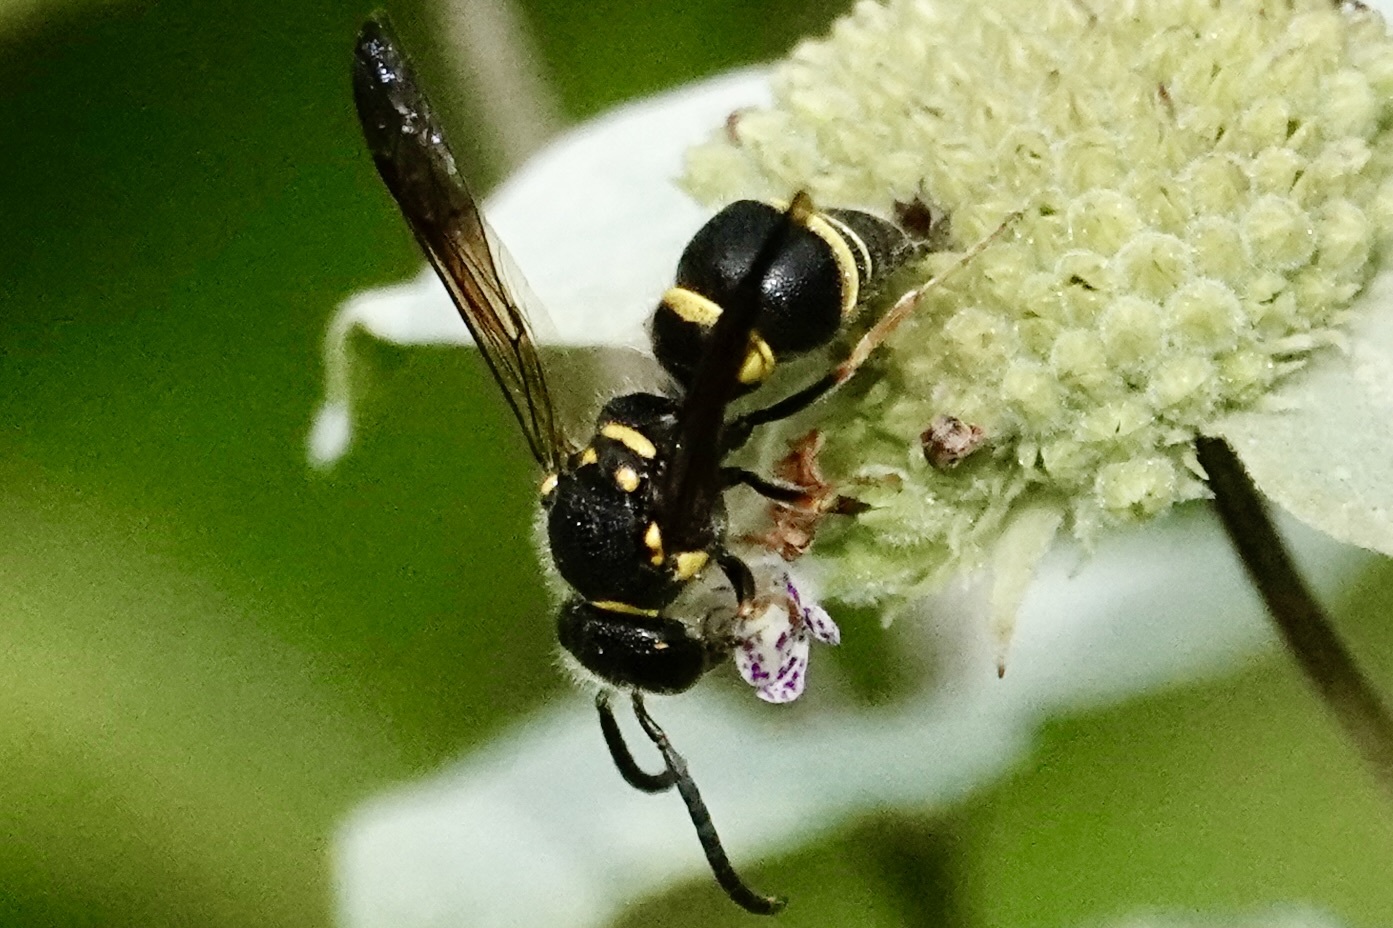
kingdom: Animalia
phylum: Arthropoda
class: Insecta
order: Hymenoptera
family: Vespidae
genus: Ancistrocerus
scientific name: Ancistrocerus campestris
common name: Smiling mason wasp
